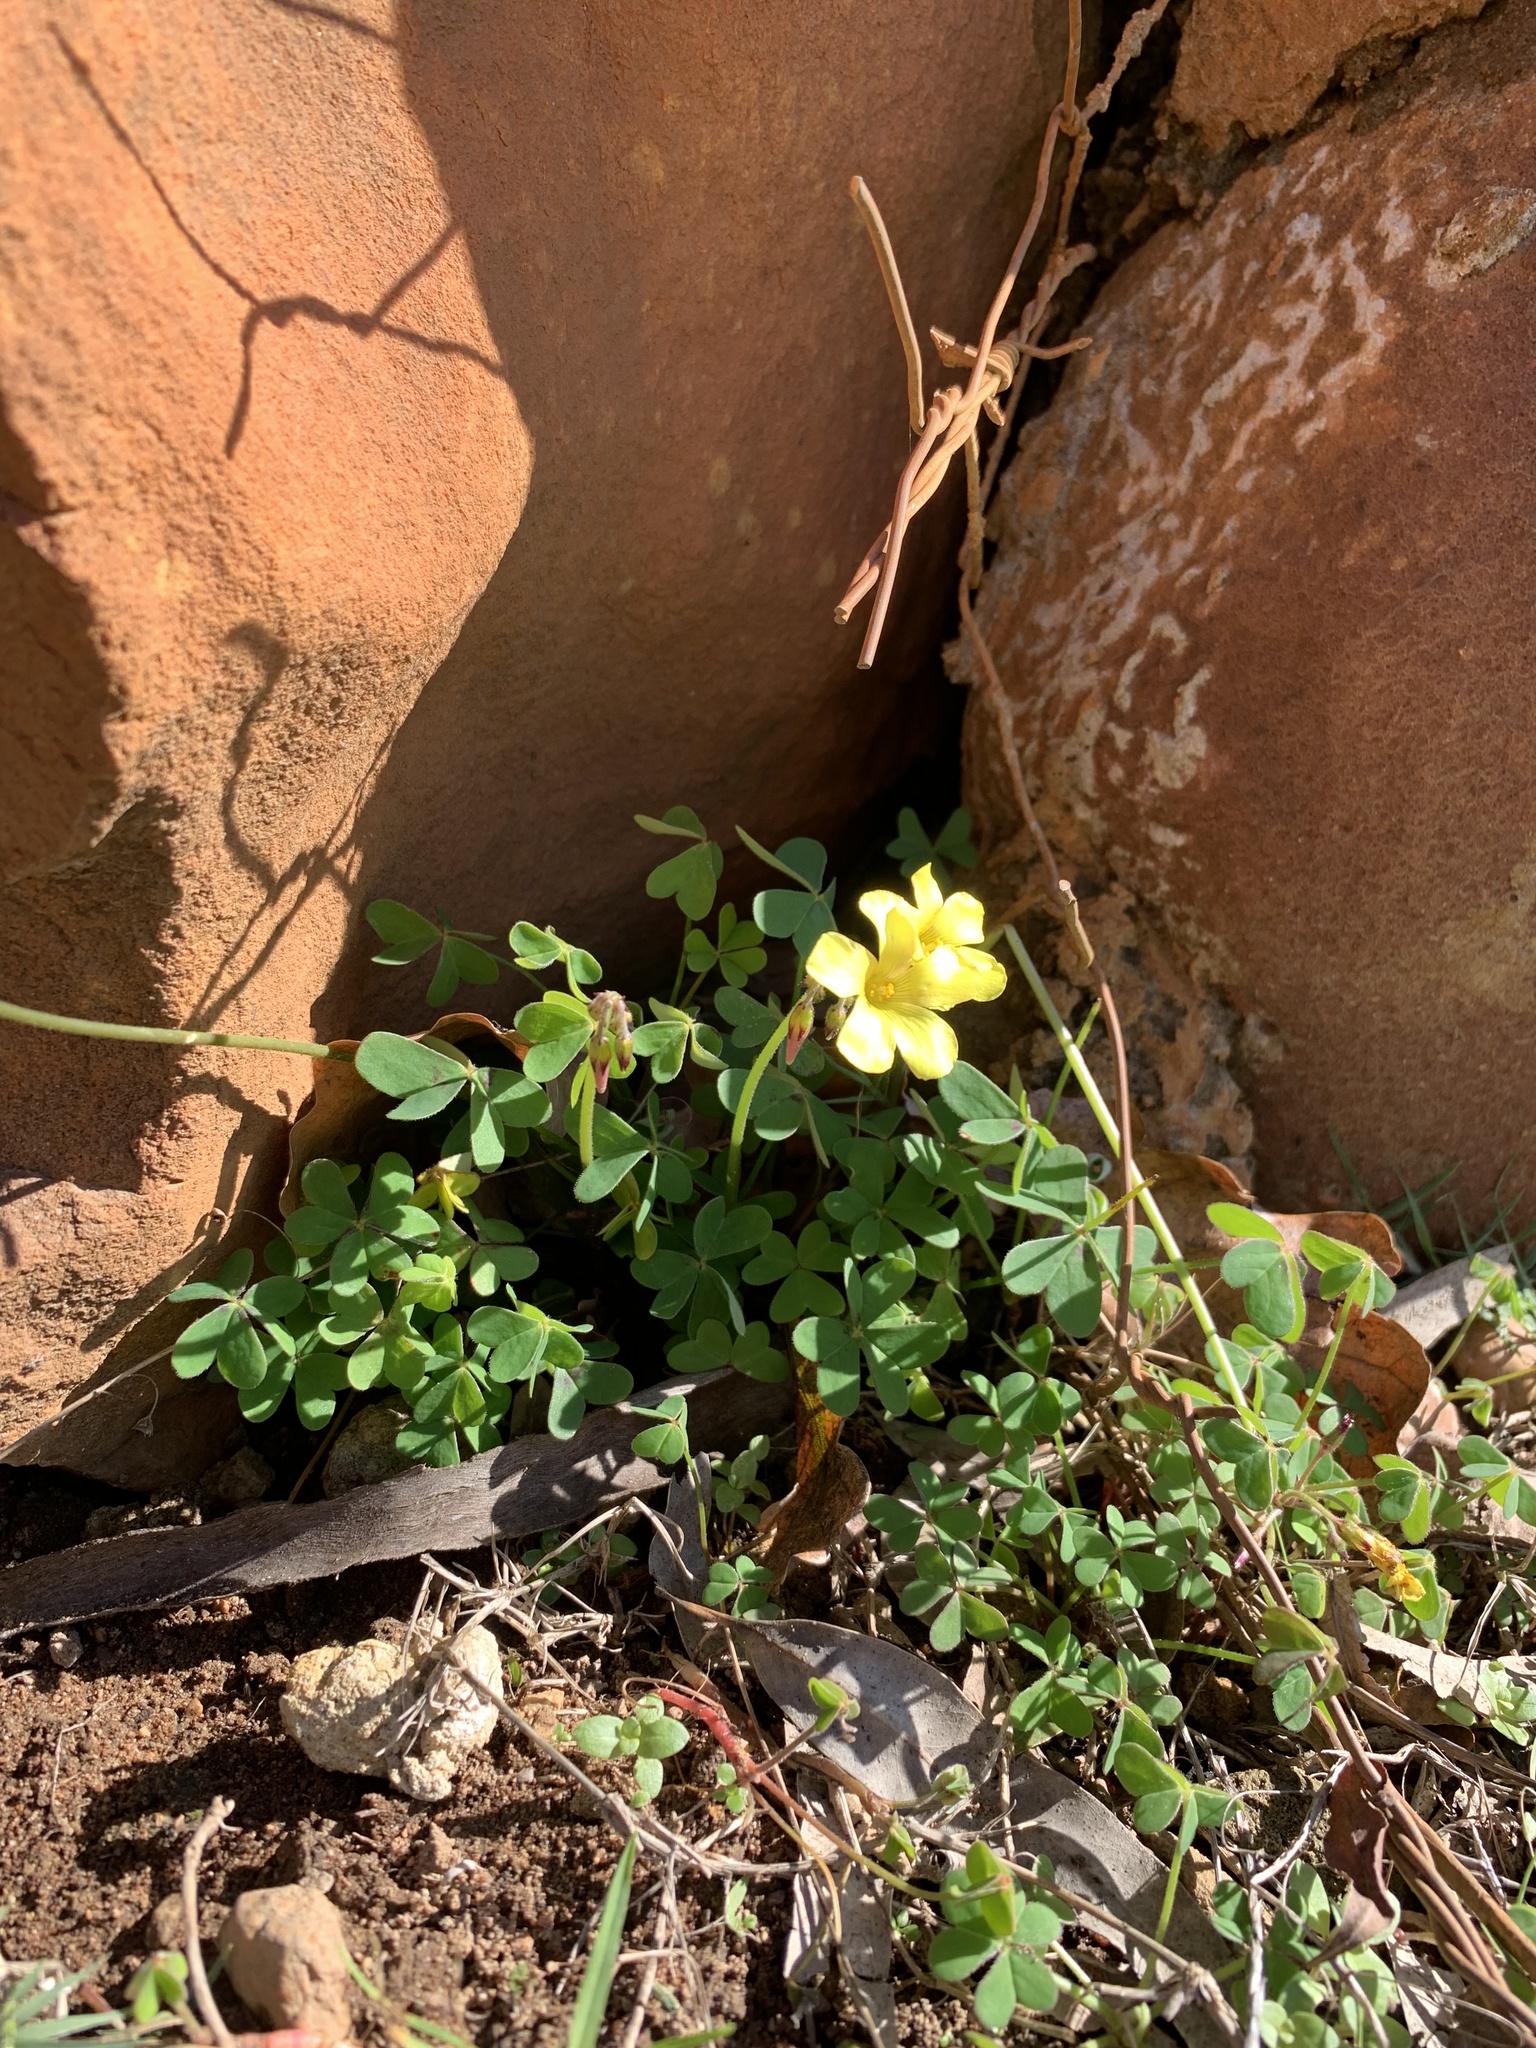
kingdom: Plantae
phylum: Tracheophyta
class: Magnoliopsida
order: Oxalidales
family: Oxalidaceae
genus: Oxalis
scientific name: Oxalis pes-caprae
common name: Bermuda-buttercup
